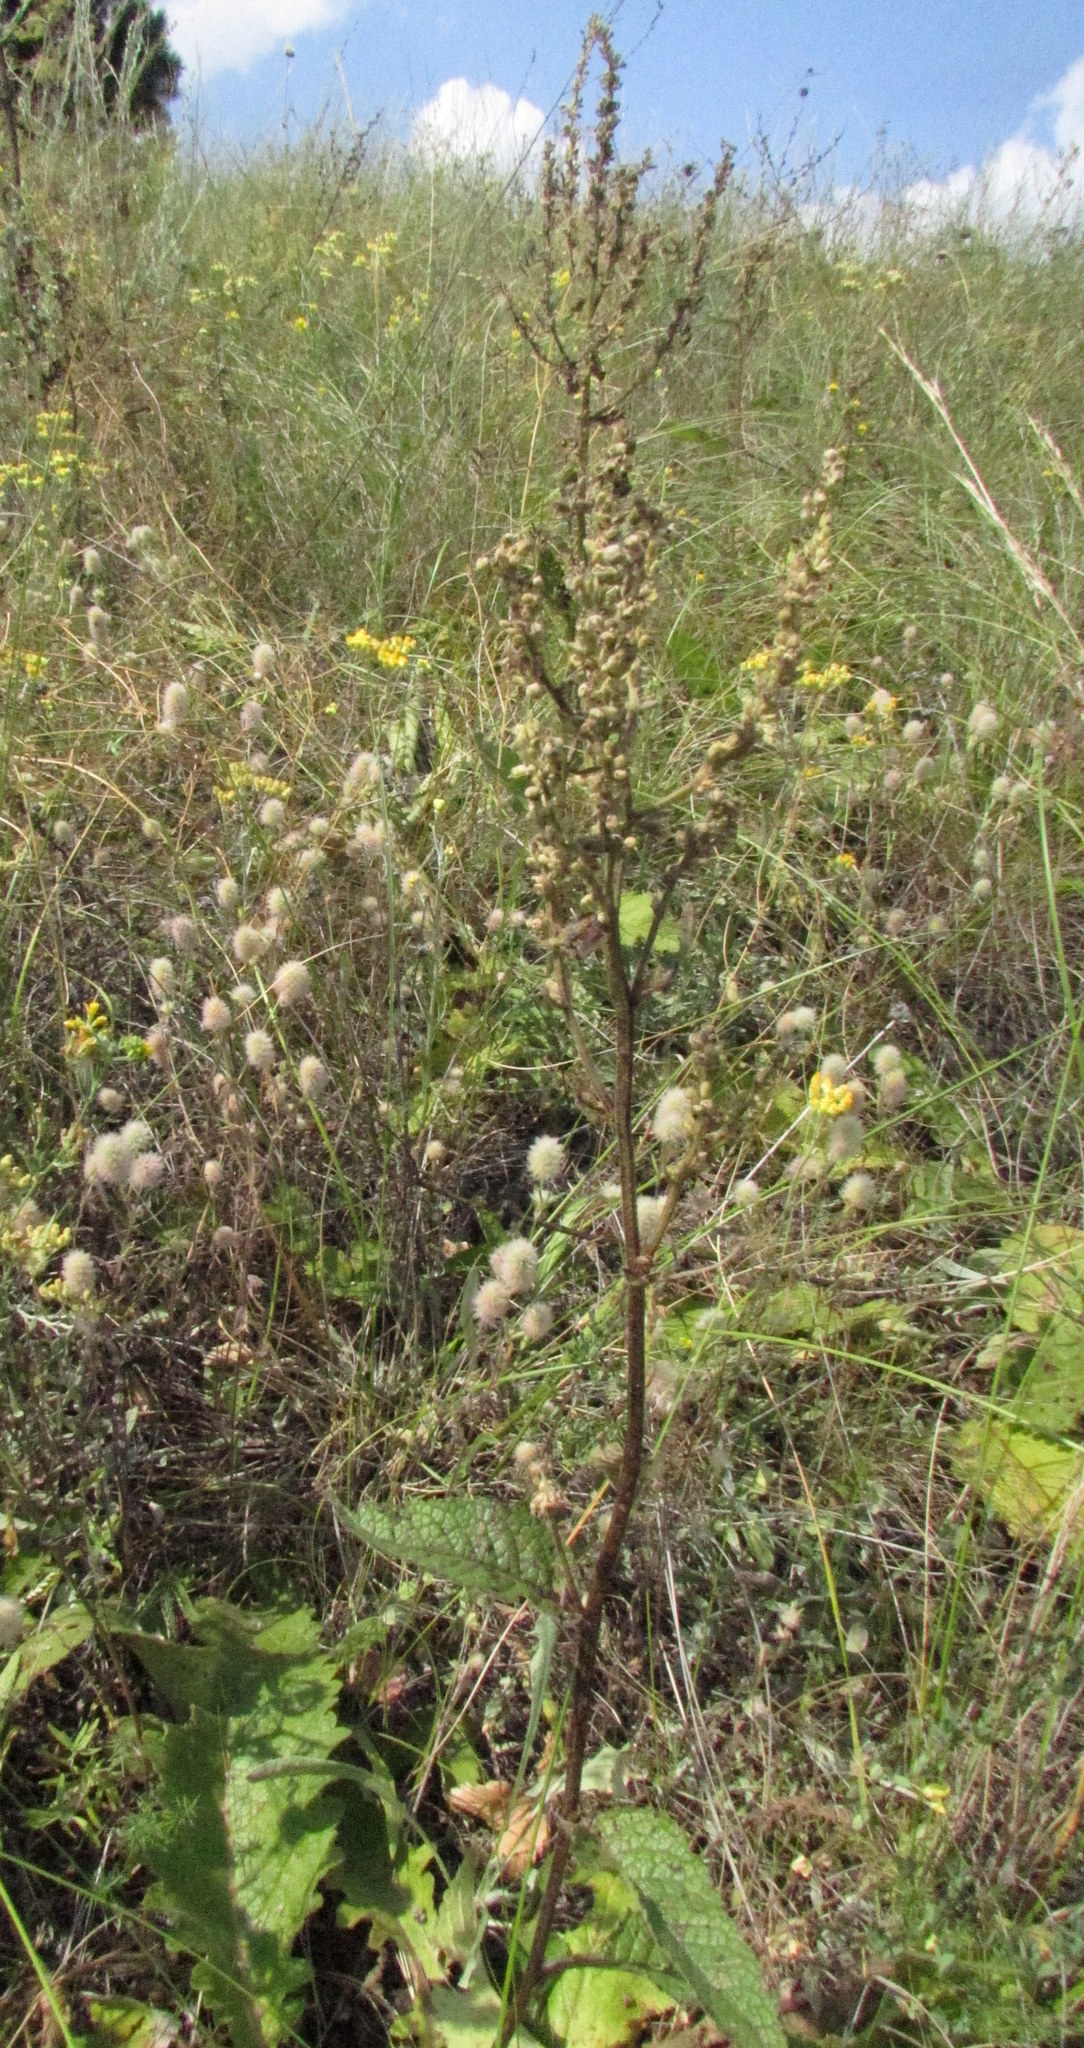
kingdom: Plantae
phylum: Tracheophyta
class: Magnoliopsida
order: Lamiales
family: Scrophulariaceae
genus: Verbascum
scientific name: Verbascum chaixii
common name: Nettle-leaved mullein
